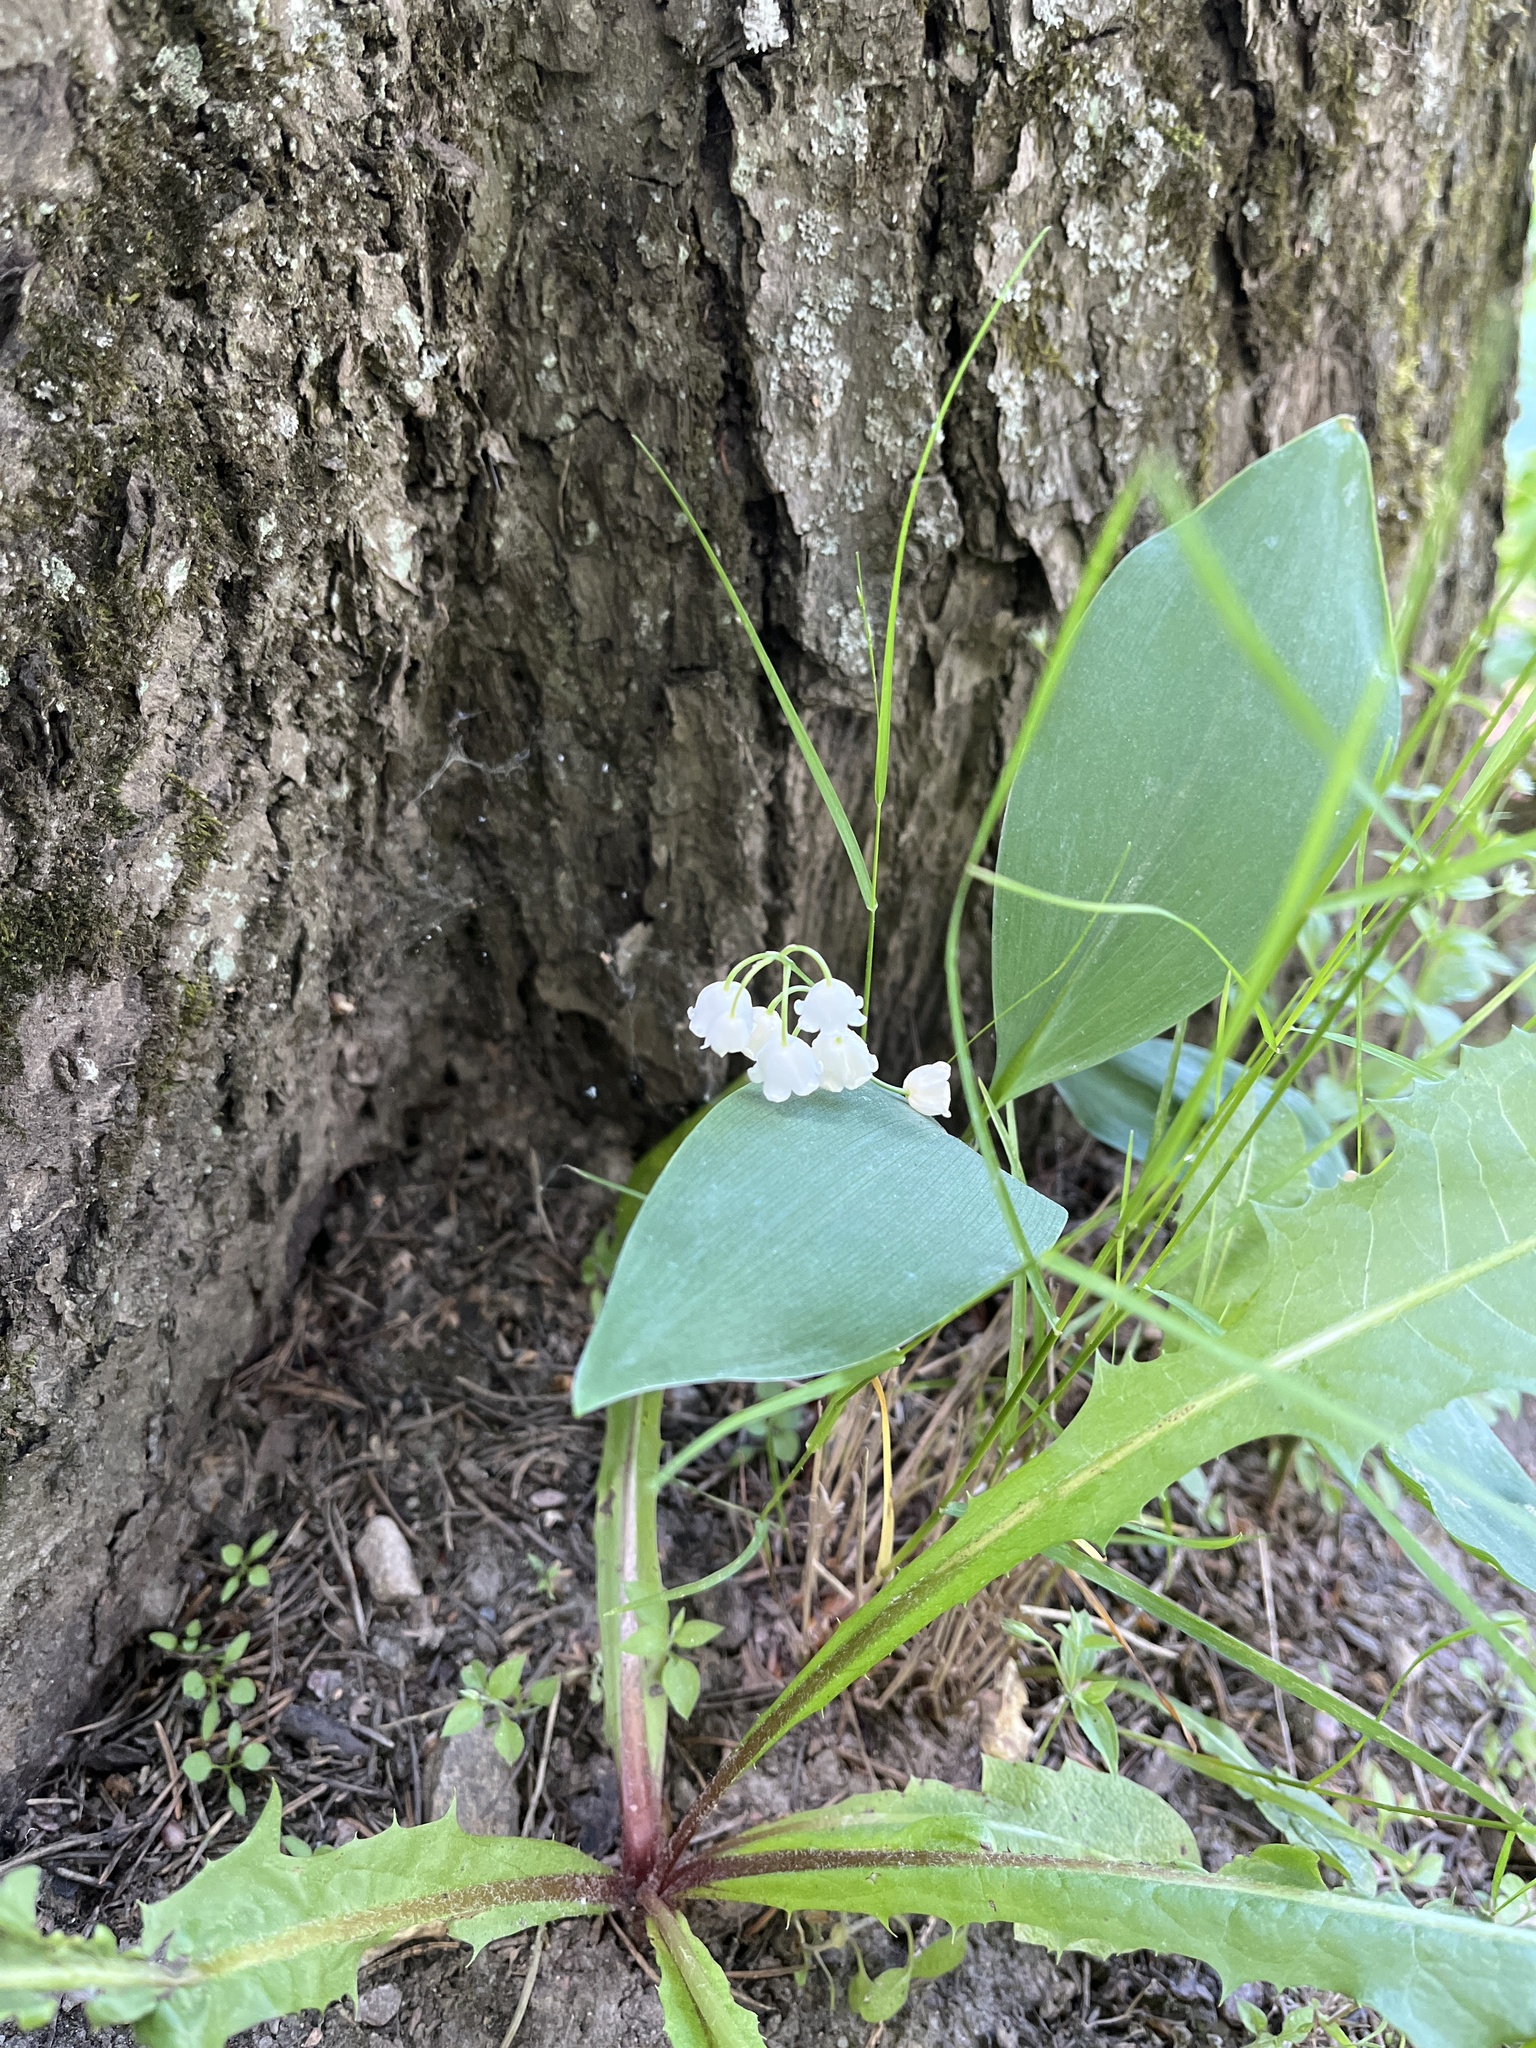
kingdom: Plantae
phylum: Tracheophyta
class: Liliopsida
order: Asparagales
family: Asparagaceae
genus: Convallaria
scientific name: Convallaria majalis
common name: Lily-of-the-valley
